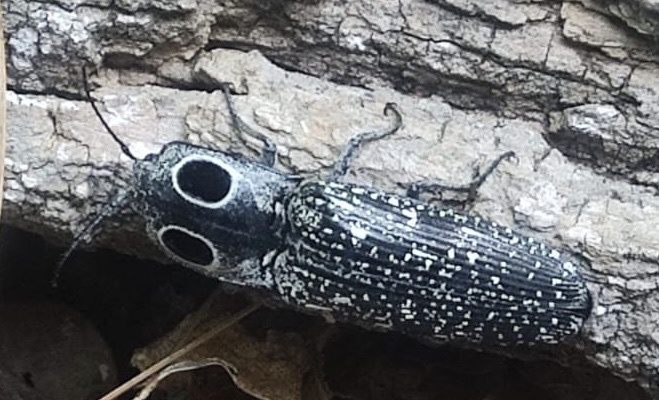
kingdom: Animalia
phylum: Arthropoda
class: Insecta
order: Coleoptera
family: Elateridae
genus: Alaus
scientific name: Alaus oculatus
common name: Eastern eyed click beetle
